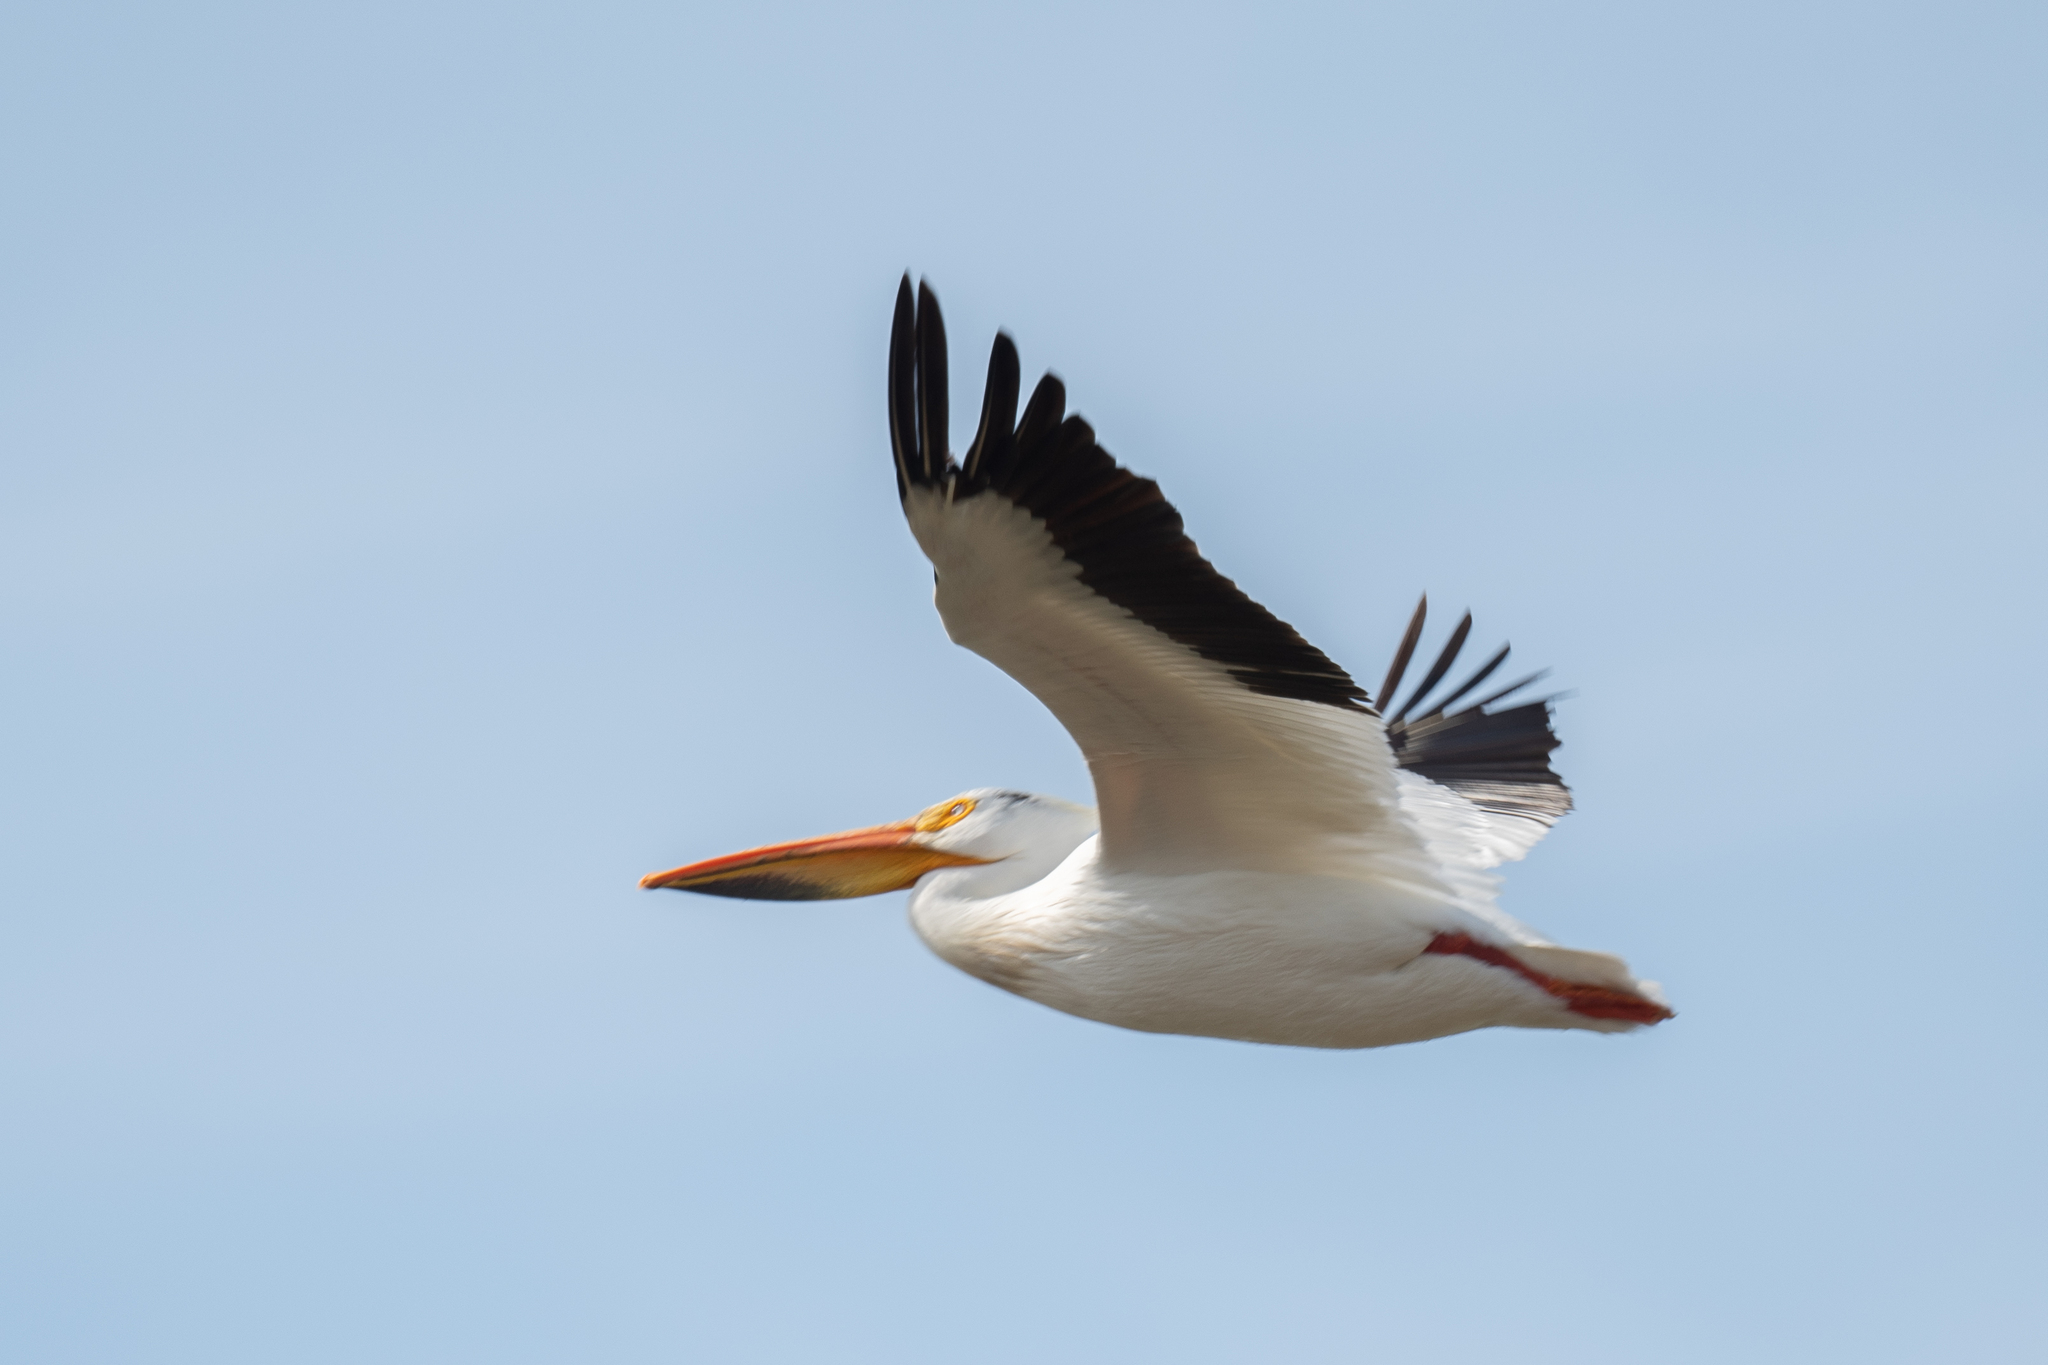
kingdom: Animalia
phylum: Chordata
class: Aves
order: Pelecaniformes
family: Pelecanidae
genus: Pelecanus
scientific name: Pelecanus erythrorhynchos
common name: American white pelican
